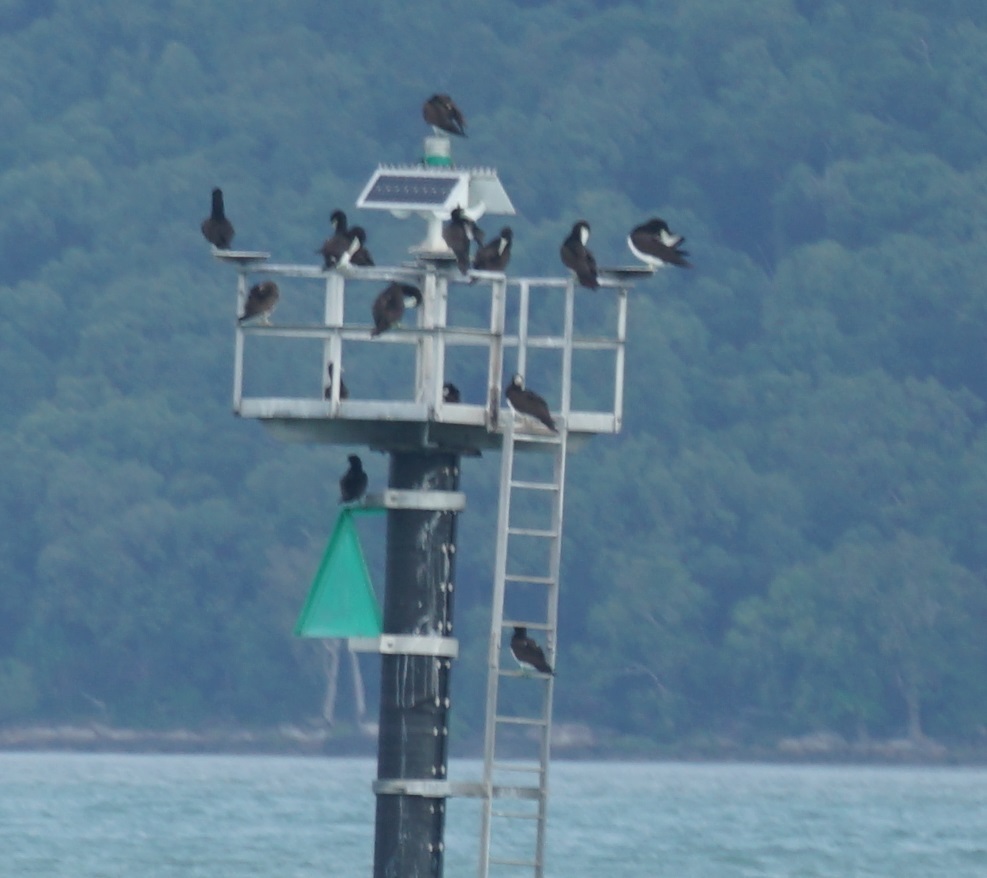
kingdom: Animalia
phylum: Chordata
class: Aves
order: Suliformes
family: Sulidae
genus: Sula
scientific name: Sula leucogaster
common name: Brown booby
